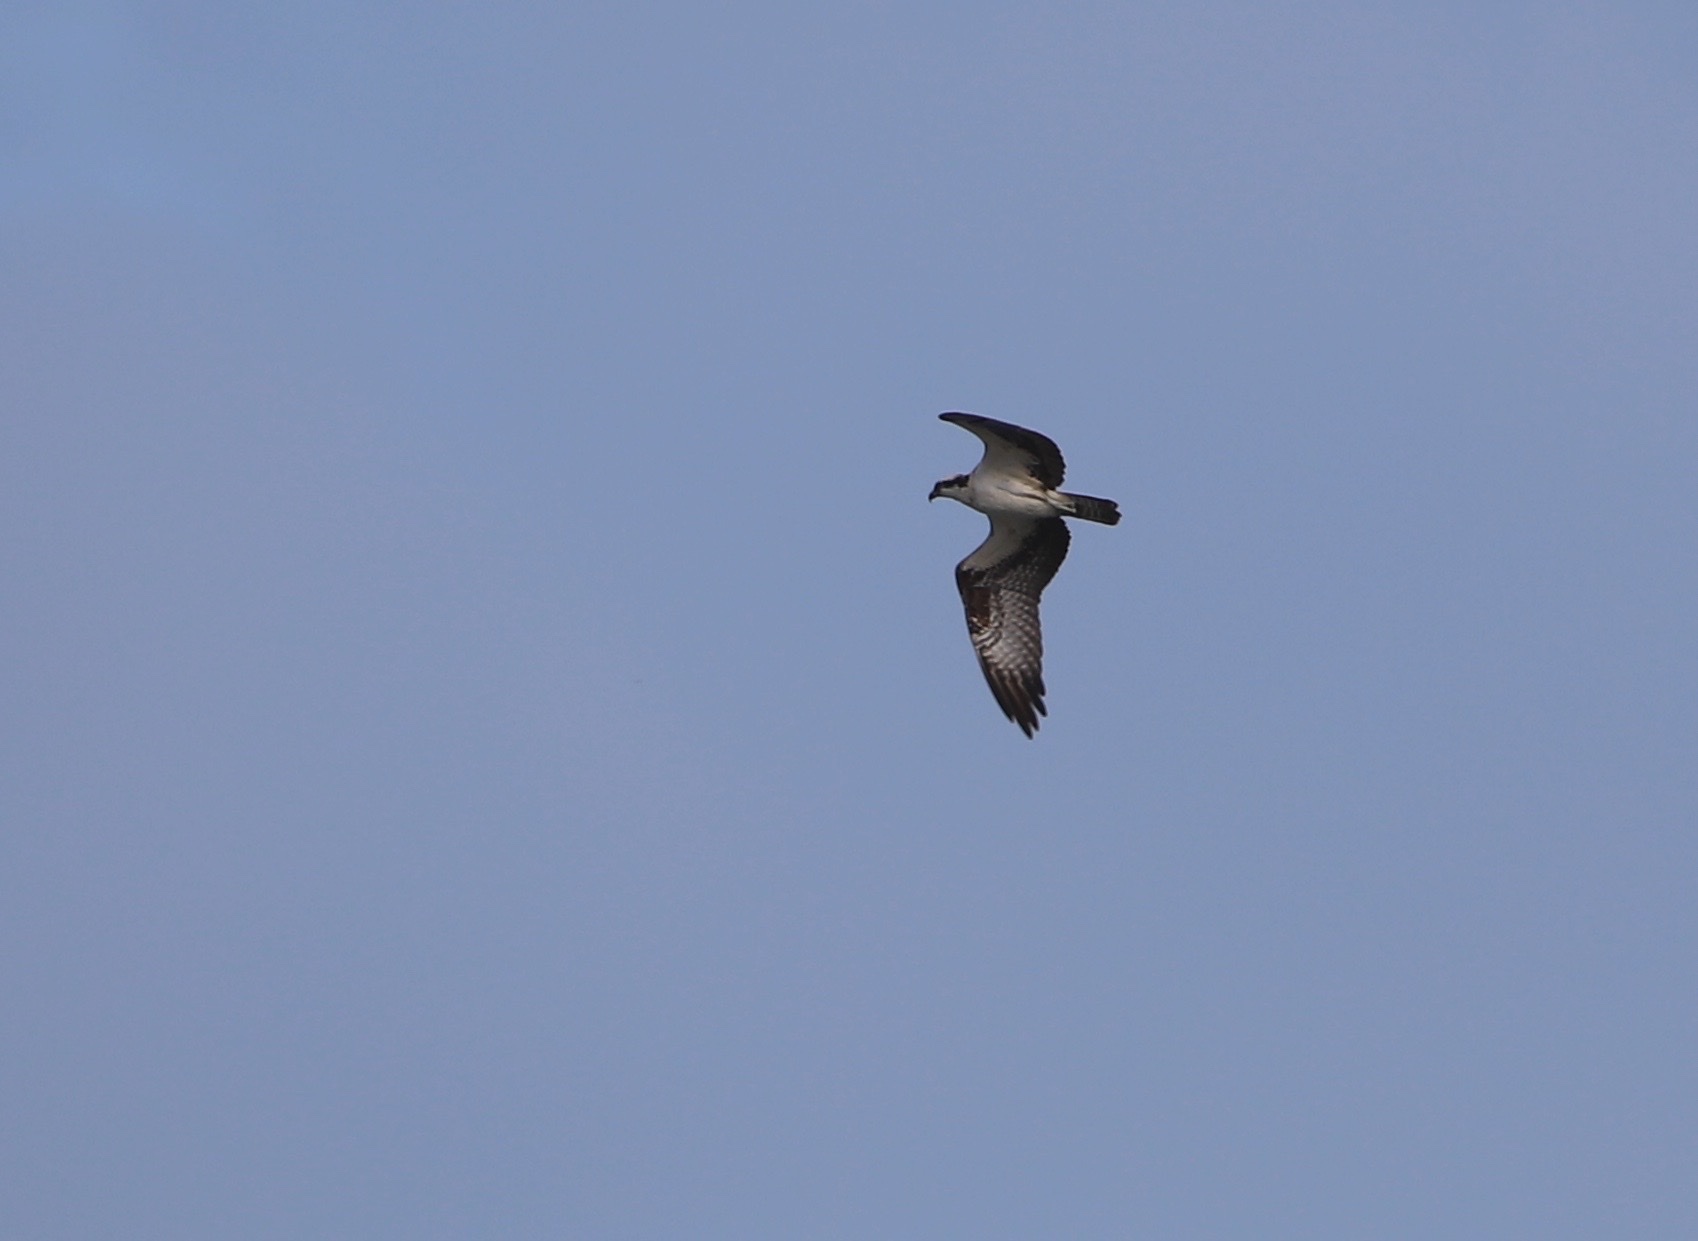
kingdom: Animalia
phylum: Chordata
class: Aves
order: Accipitriformes
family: Pandionidae
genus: Pandion
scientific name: Pandion haliaetus
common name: Osprey
